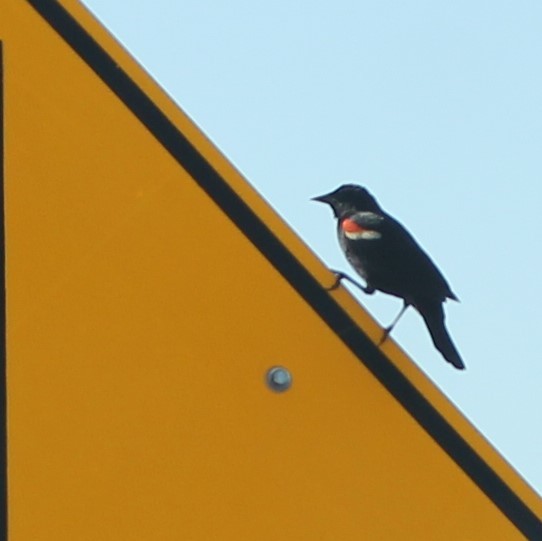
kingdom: Animalia
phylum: Chordata
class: Aves
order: Passeriformes
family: Icteridae
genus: Agelaius
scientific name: Agelaius phoeniceus
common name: Red-winged blackbird
